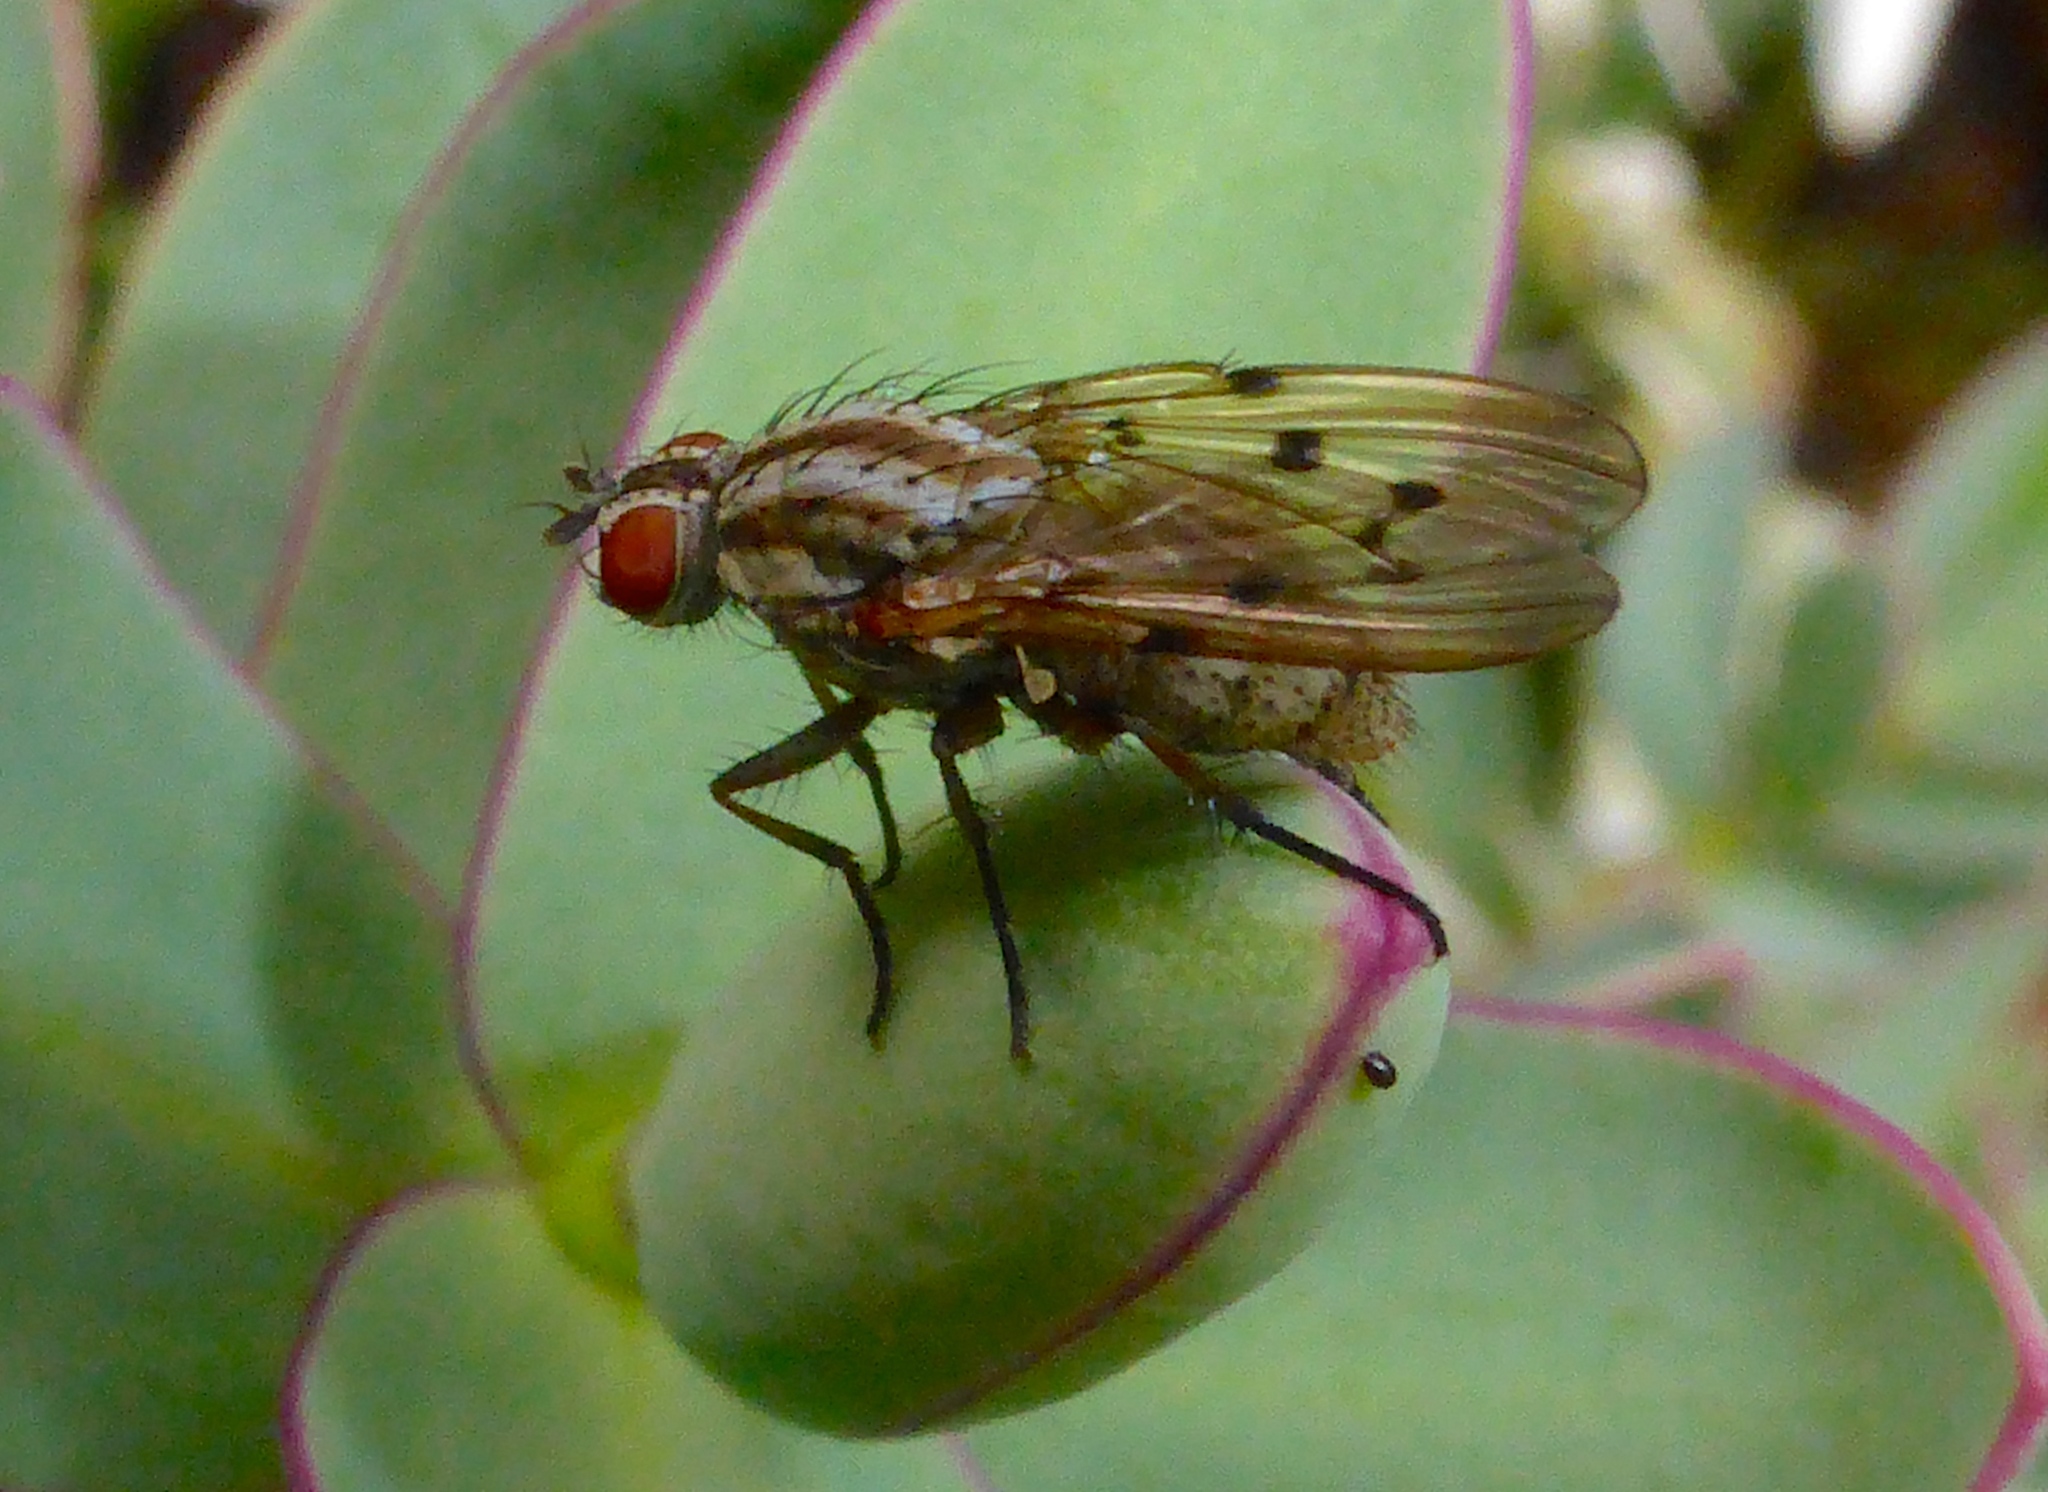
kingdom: Animalia
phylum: Arthropoda
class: Insecta
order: Diptera
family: Anthomyiidae
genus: Anthomyia
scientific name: Anthomyia punctipennis
